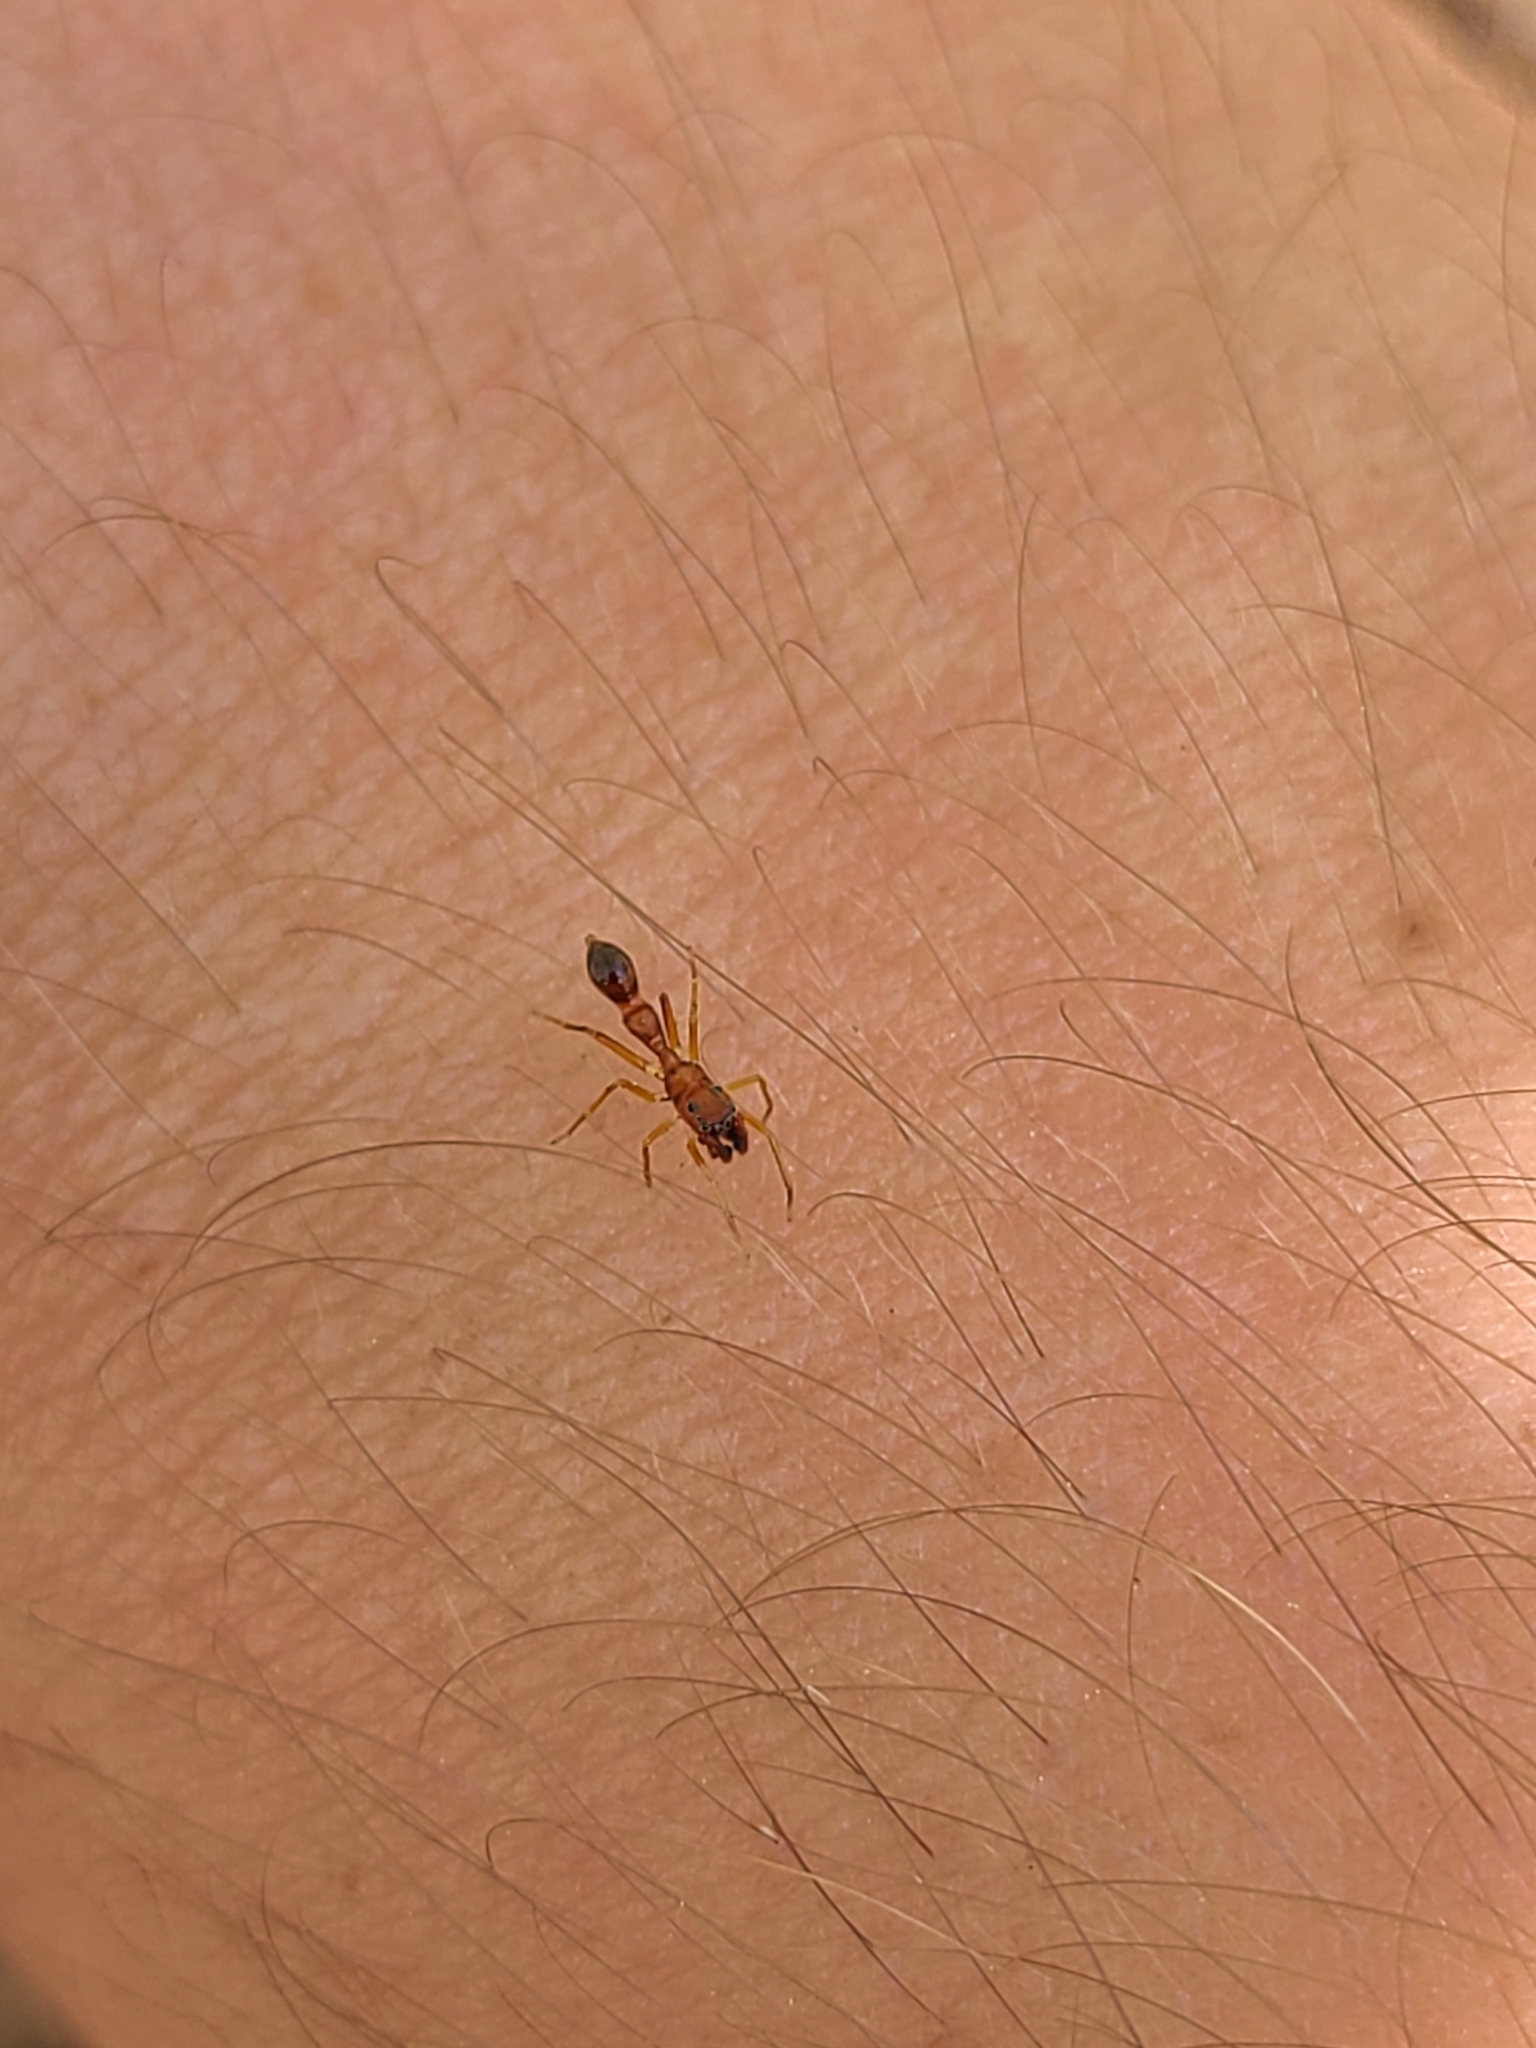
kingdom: Animalia
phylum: Arthropoda
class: Arachnida
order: Araneae
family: Salticidae
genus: Synemosyna
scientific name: Synemosyna formica
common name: Slender ant-mimic jumping spider
